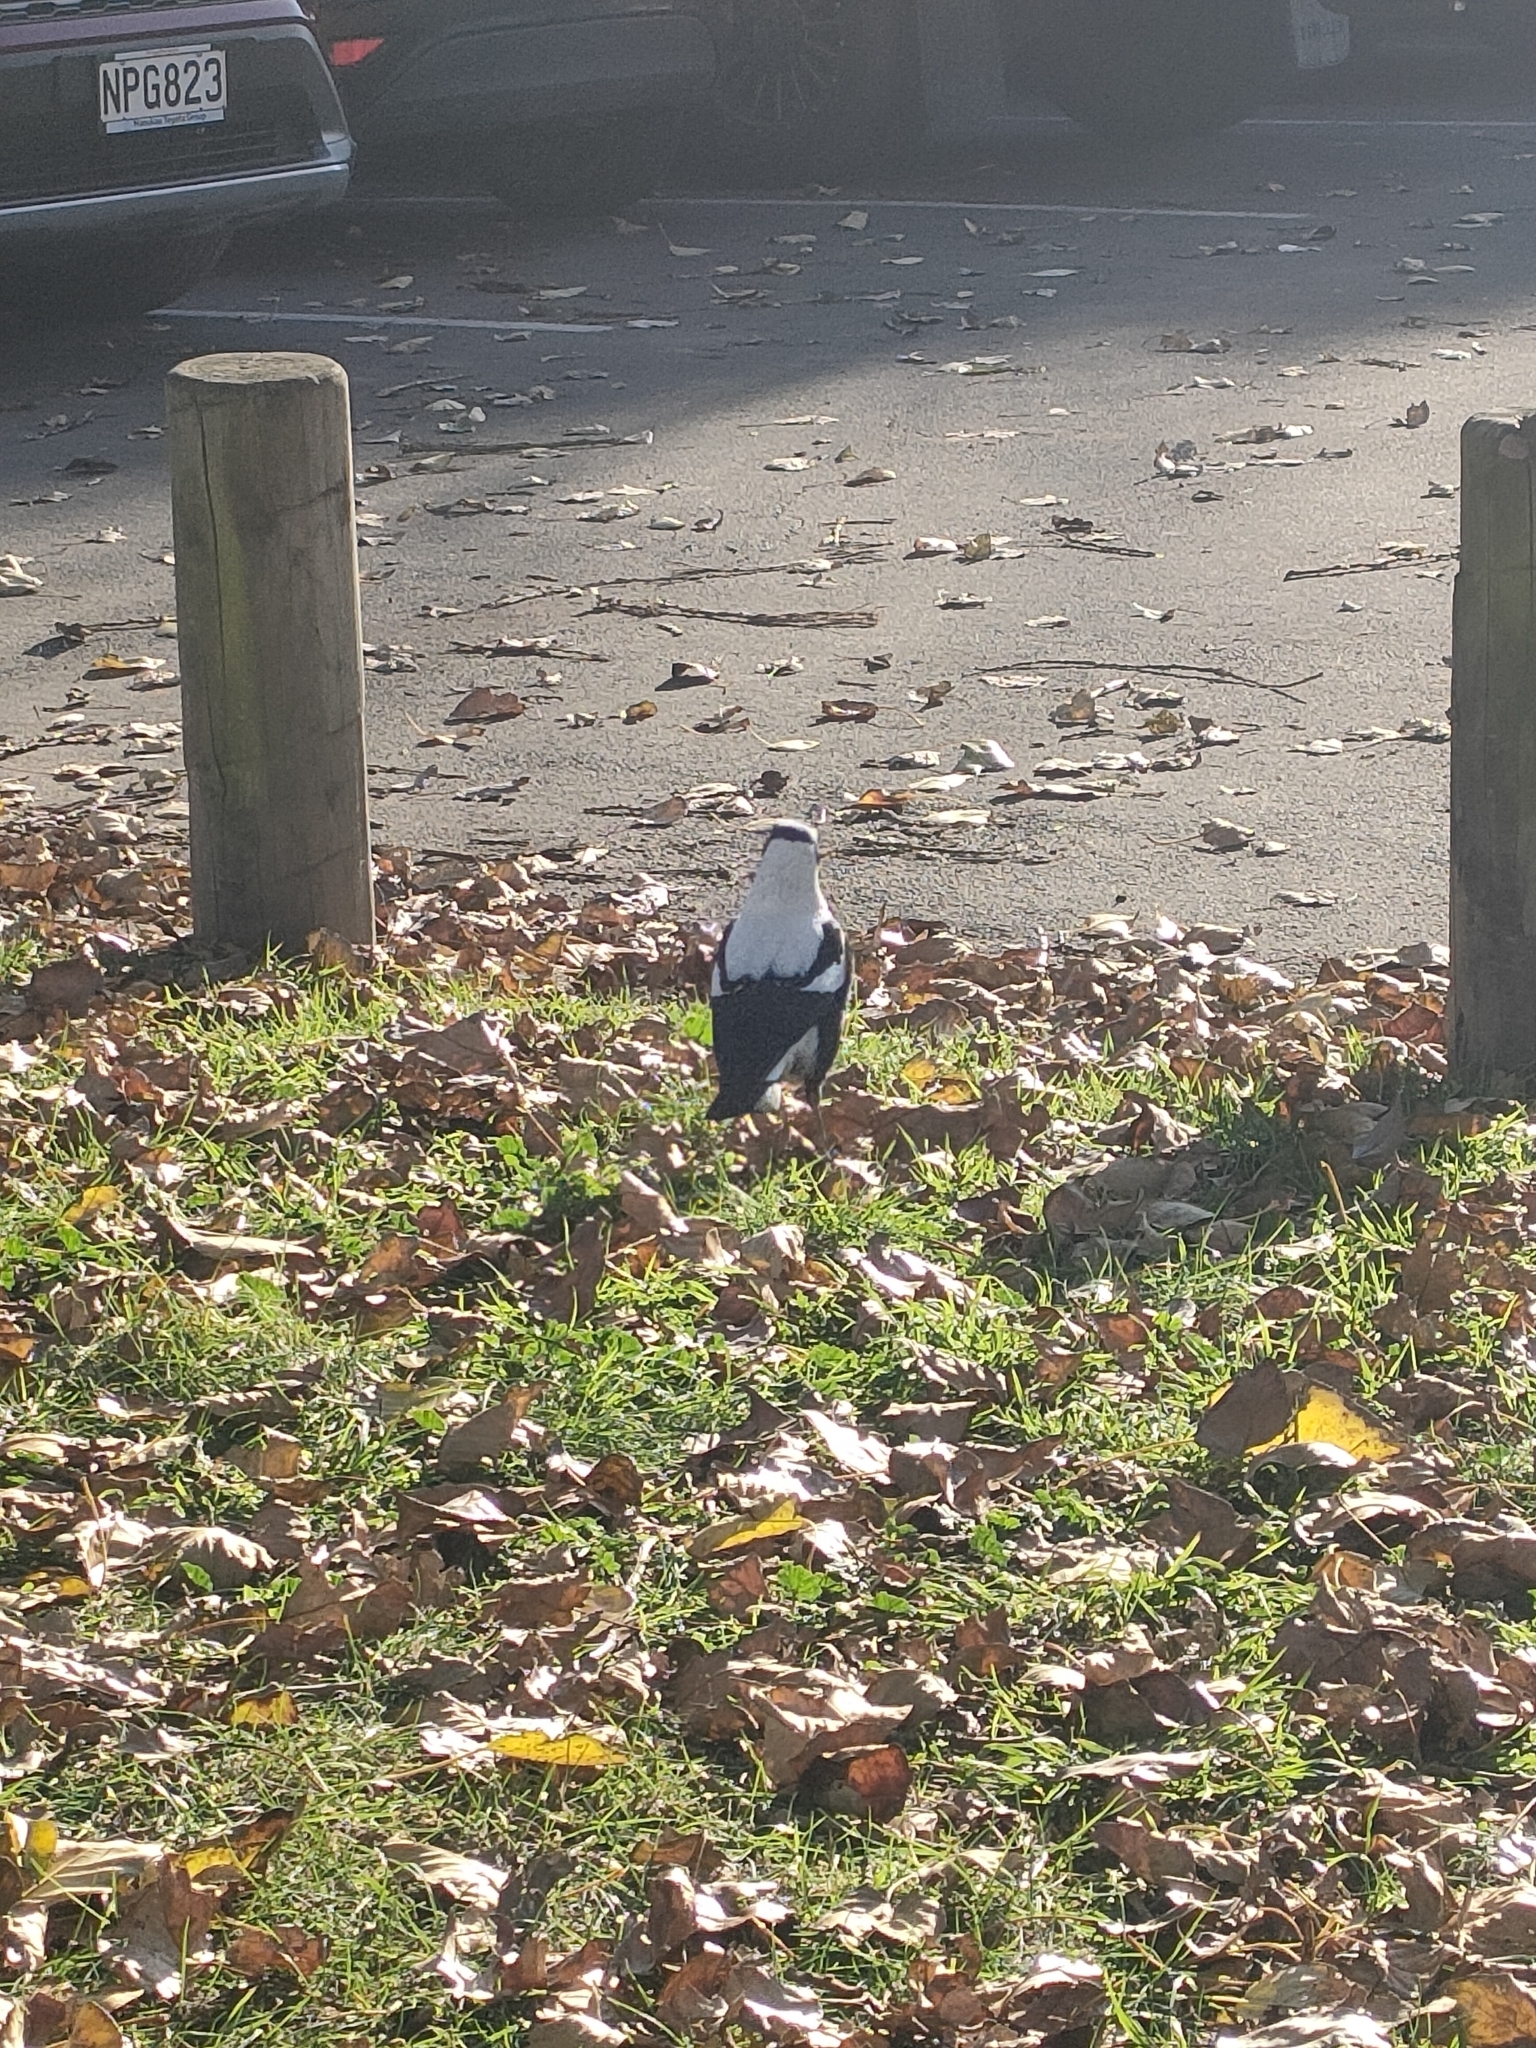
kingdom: Animalia
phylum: Chordata
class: Aves
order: Passeriformes
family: Cracticidae
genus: Gymnorhina
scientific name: Gymnorhina tibicen
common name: Australian magpie
